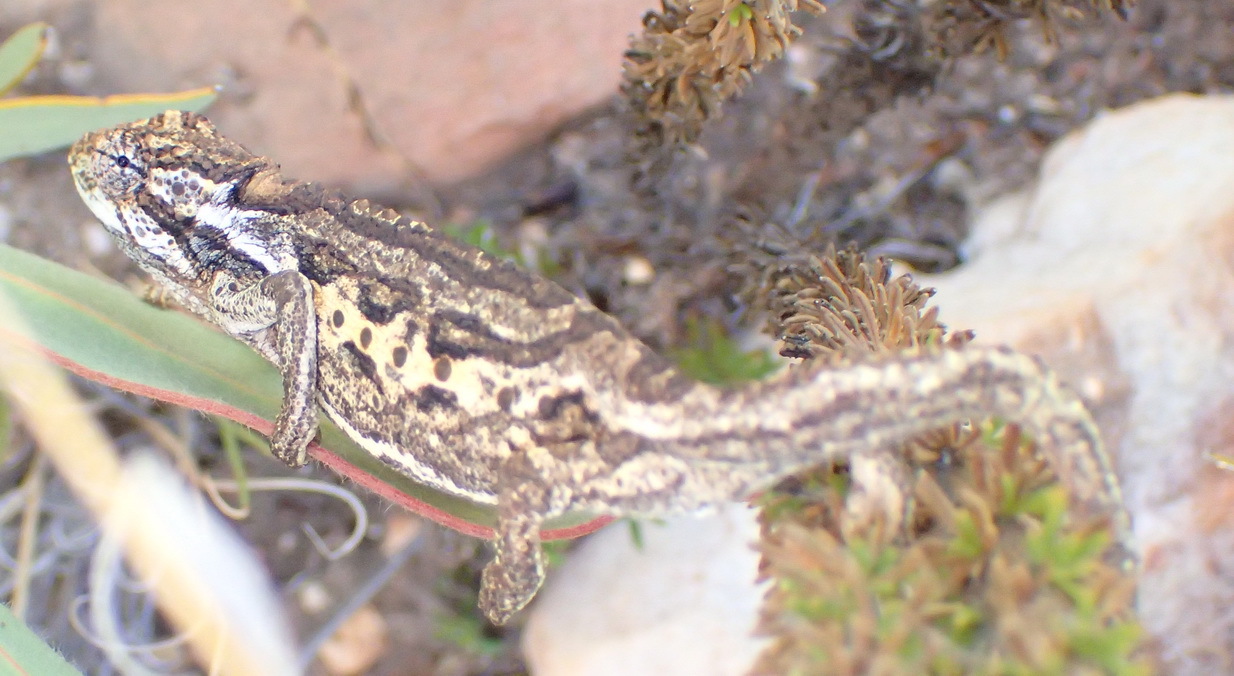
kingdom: Animalia
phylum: Chordata
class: Squamata
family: Chamaeleonidae
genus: Bradypodion
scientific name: Bradypodion atromontanum
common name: Swartberg dwarf chameleon
